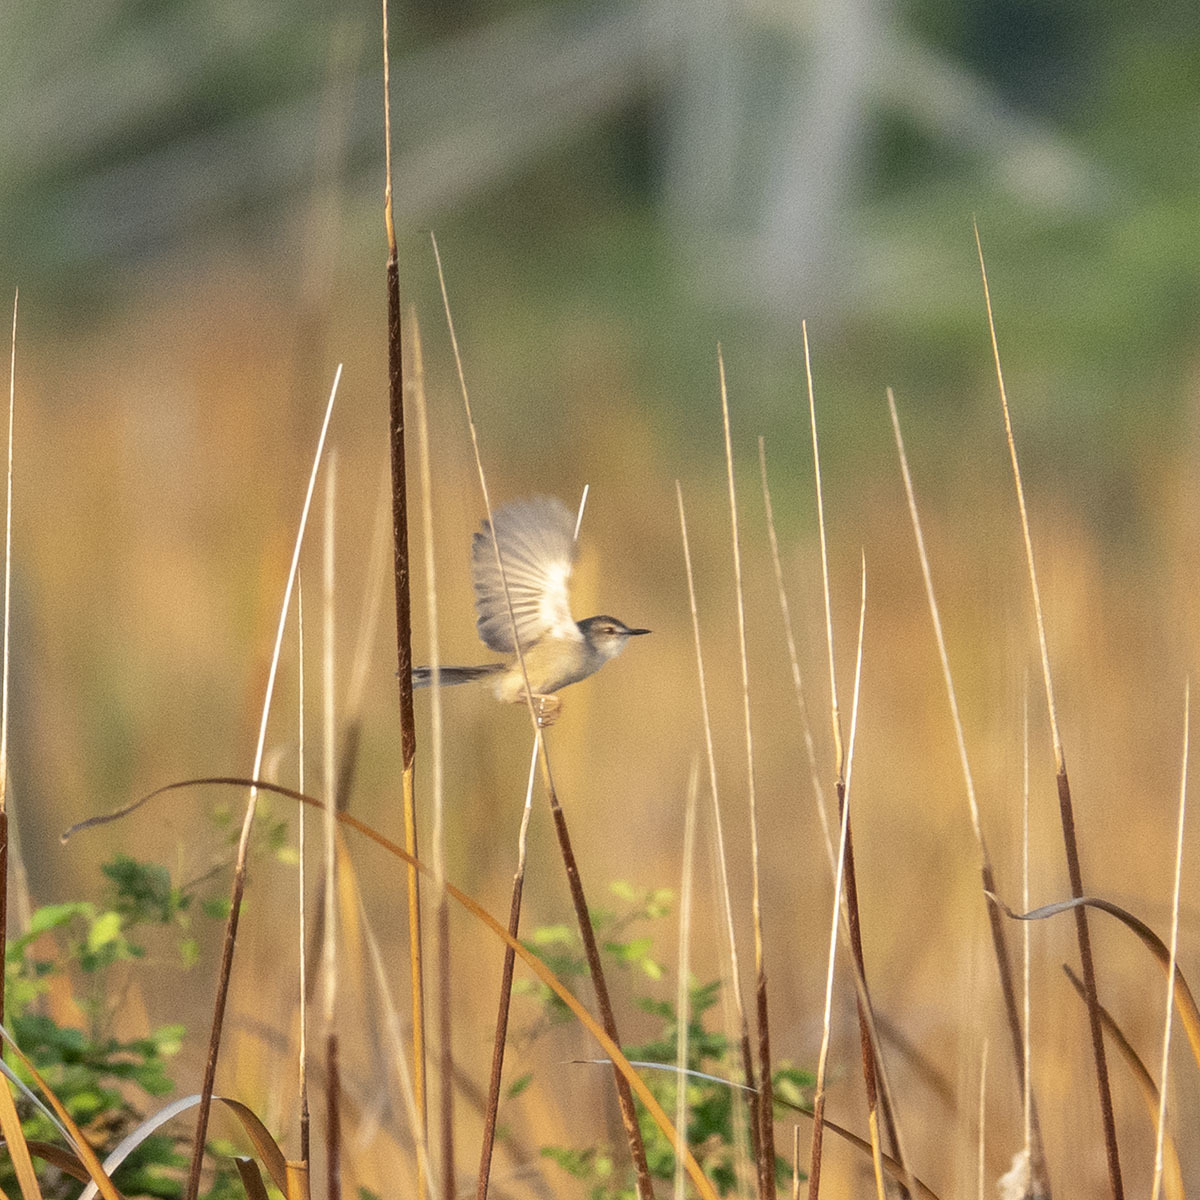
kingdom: Animalia
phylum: Chordata
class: Aves
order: Passeriformes
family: Cisticolidae
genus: Prinia
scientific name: Prinia inornata
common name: Plain prinia
